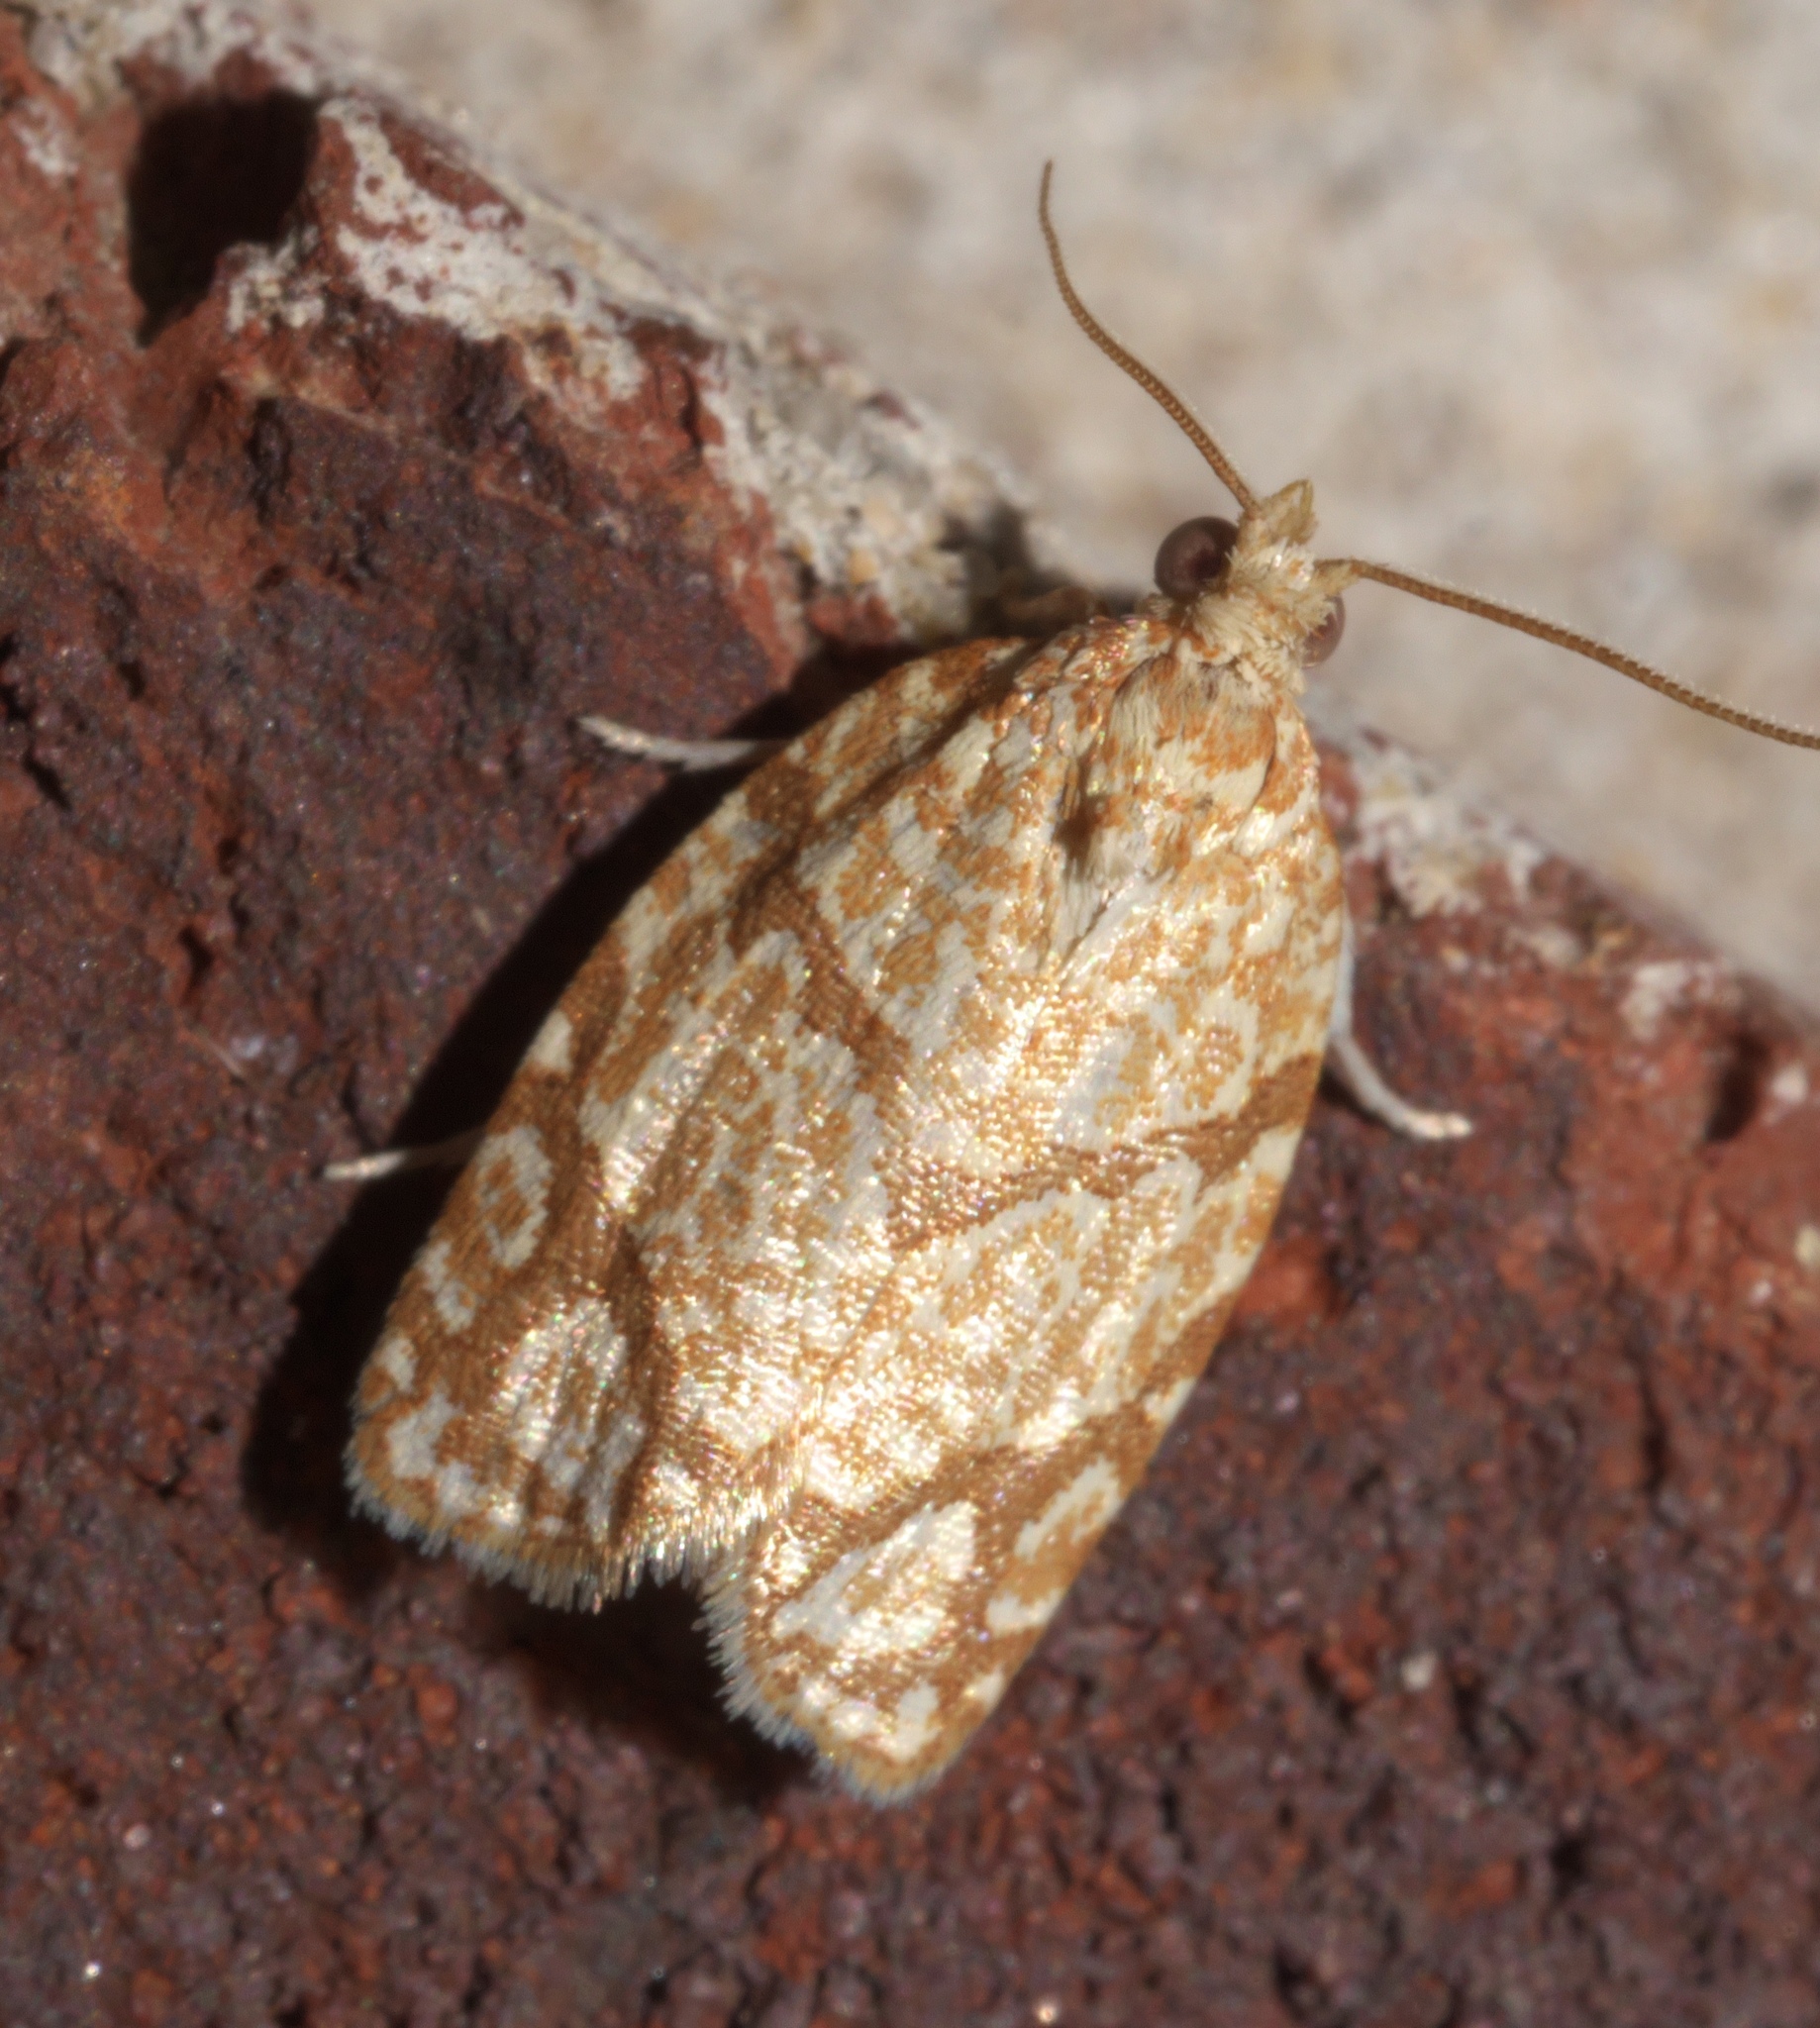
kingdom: Animalia
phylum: Arthropoda
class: Insecta
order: Lepidoptera
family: Tortricidae
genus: Argyrotaenia
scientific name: Argyrotaenia quercifoliana
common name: Yellow-winged oak leafroller moth
